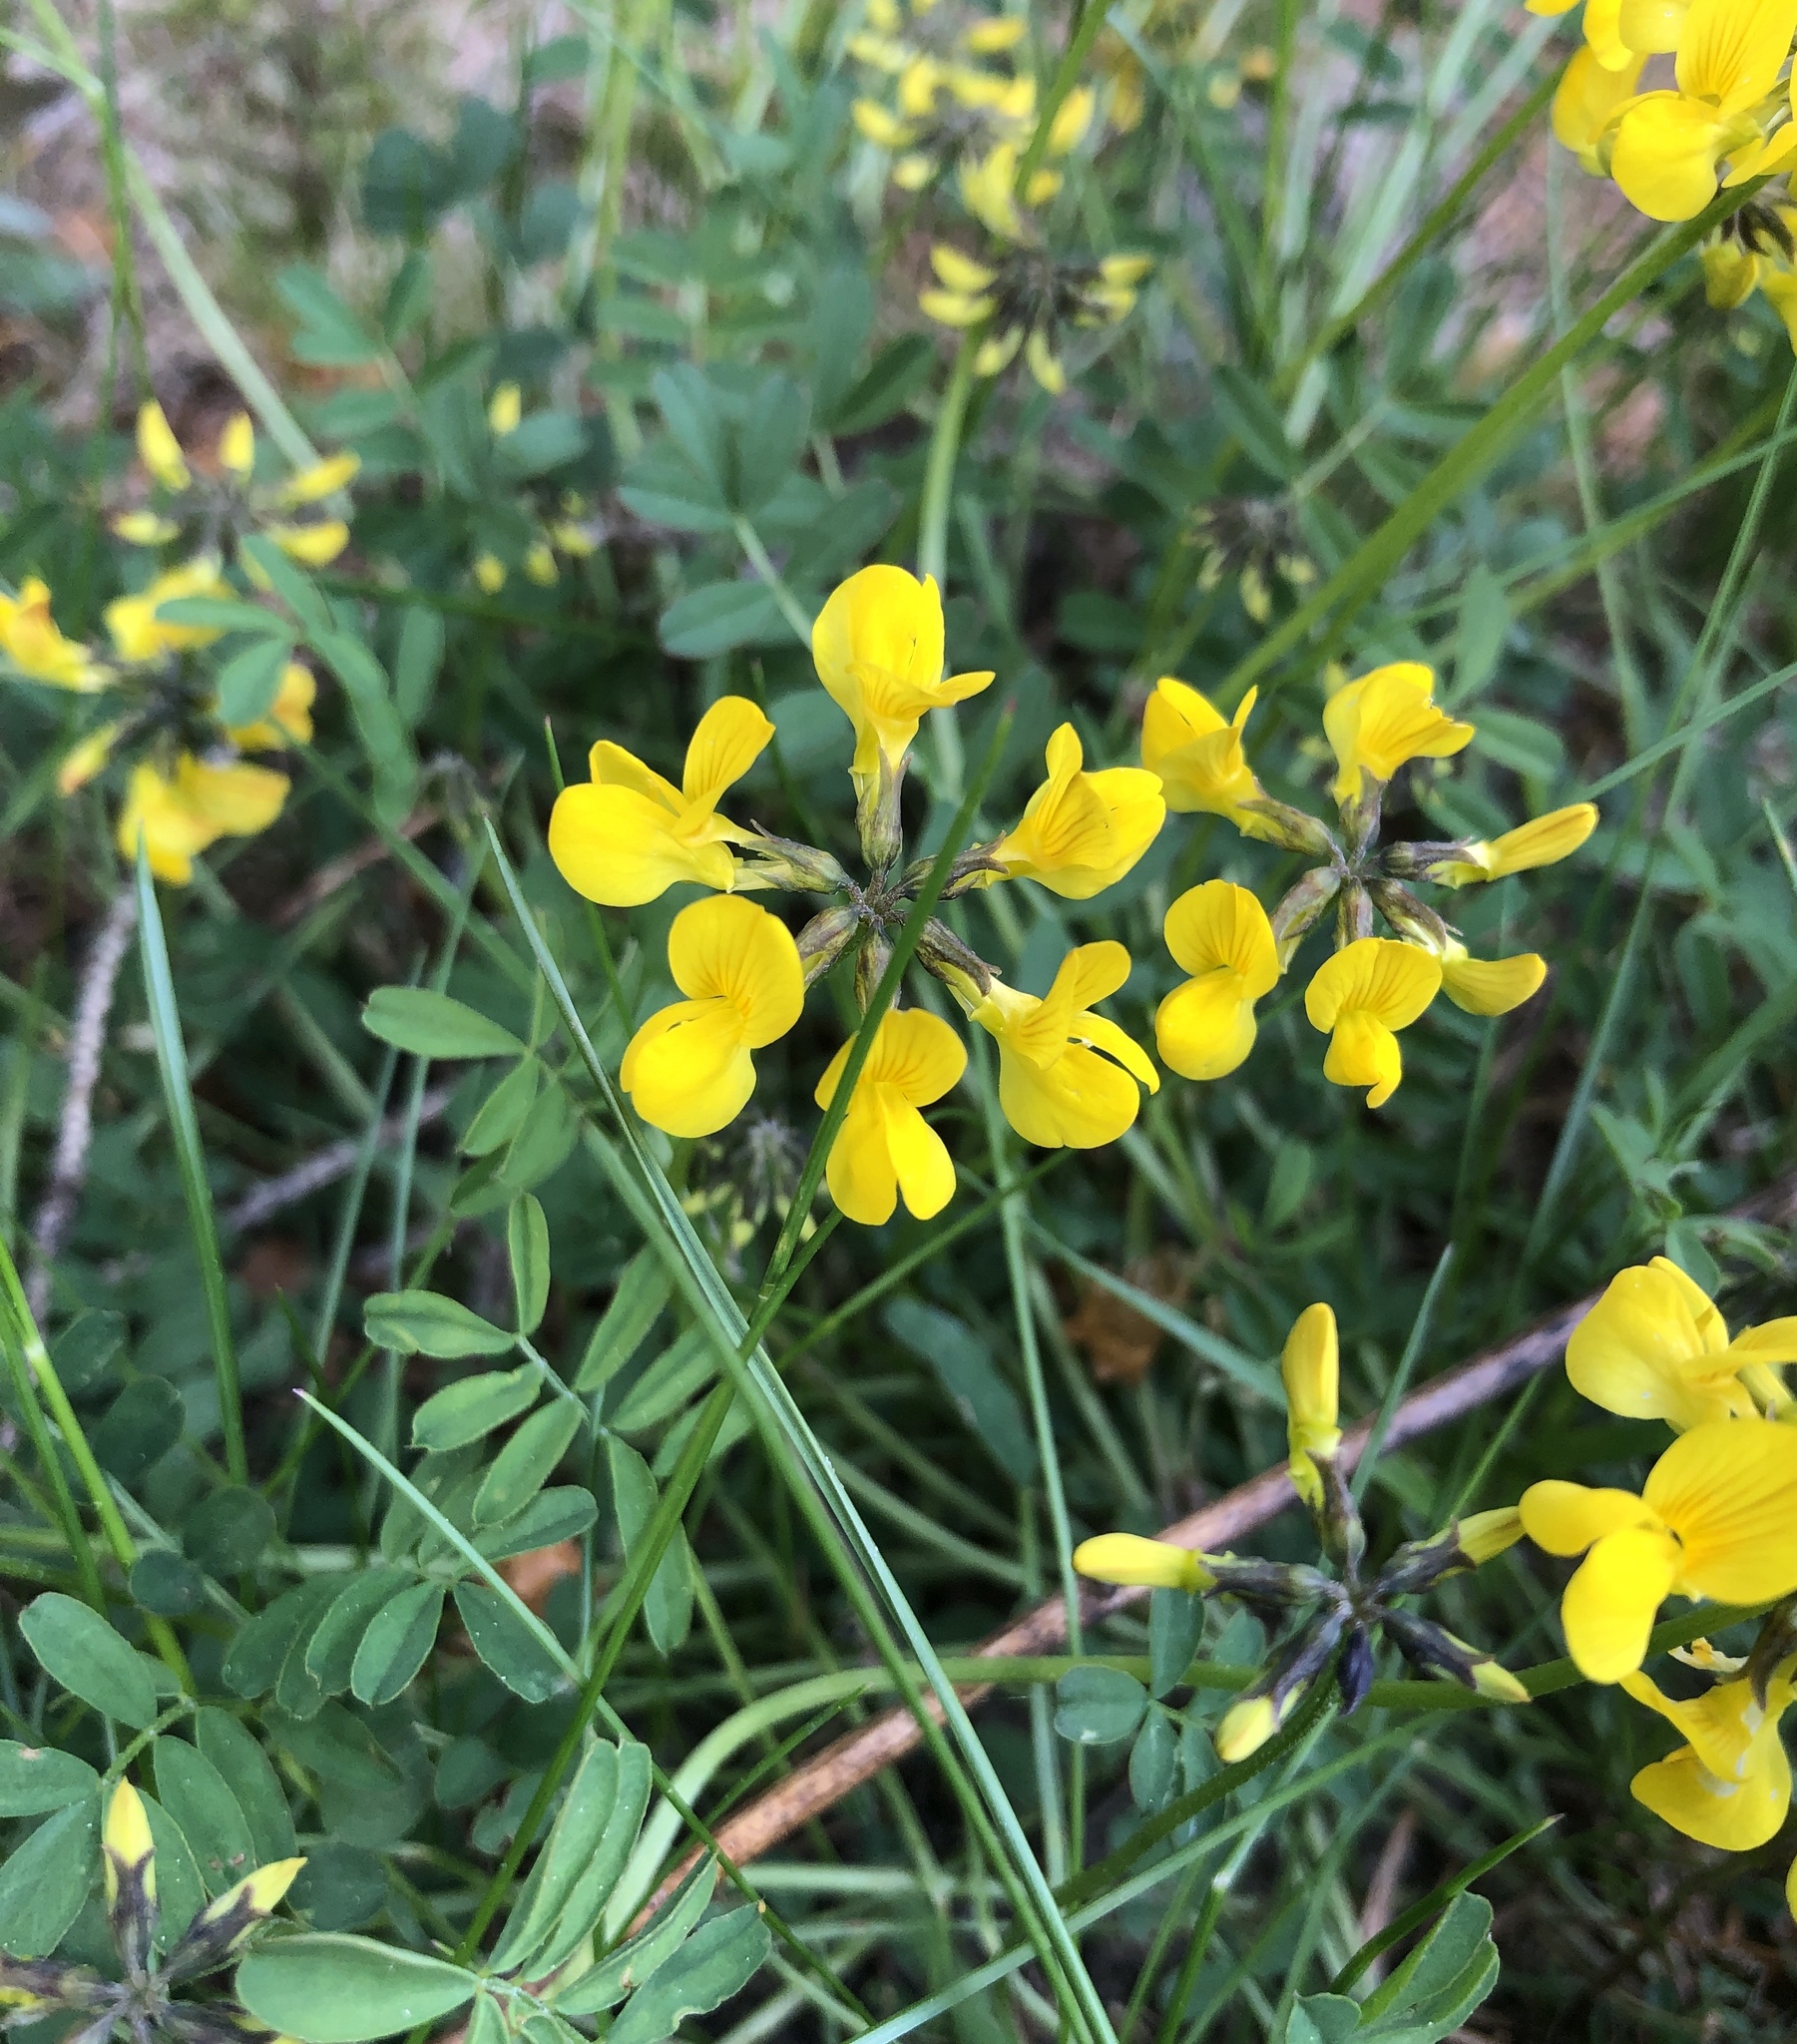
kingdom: Plantae
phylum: Tracheophyta
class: Magnoliopsida
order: Fabales
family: Fabaceae
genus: Hippocrepis
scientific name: Hippocrepis comosa
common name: Horseshoe vetch
